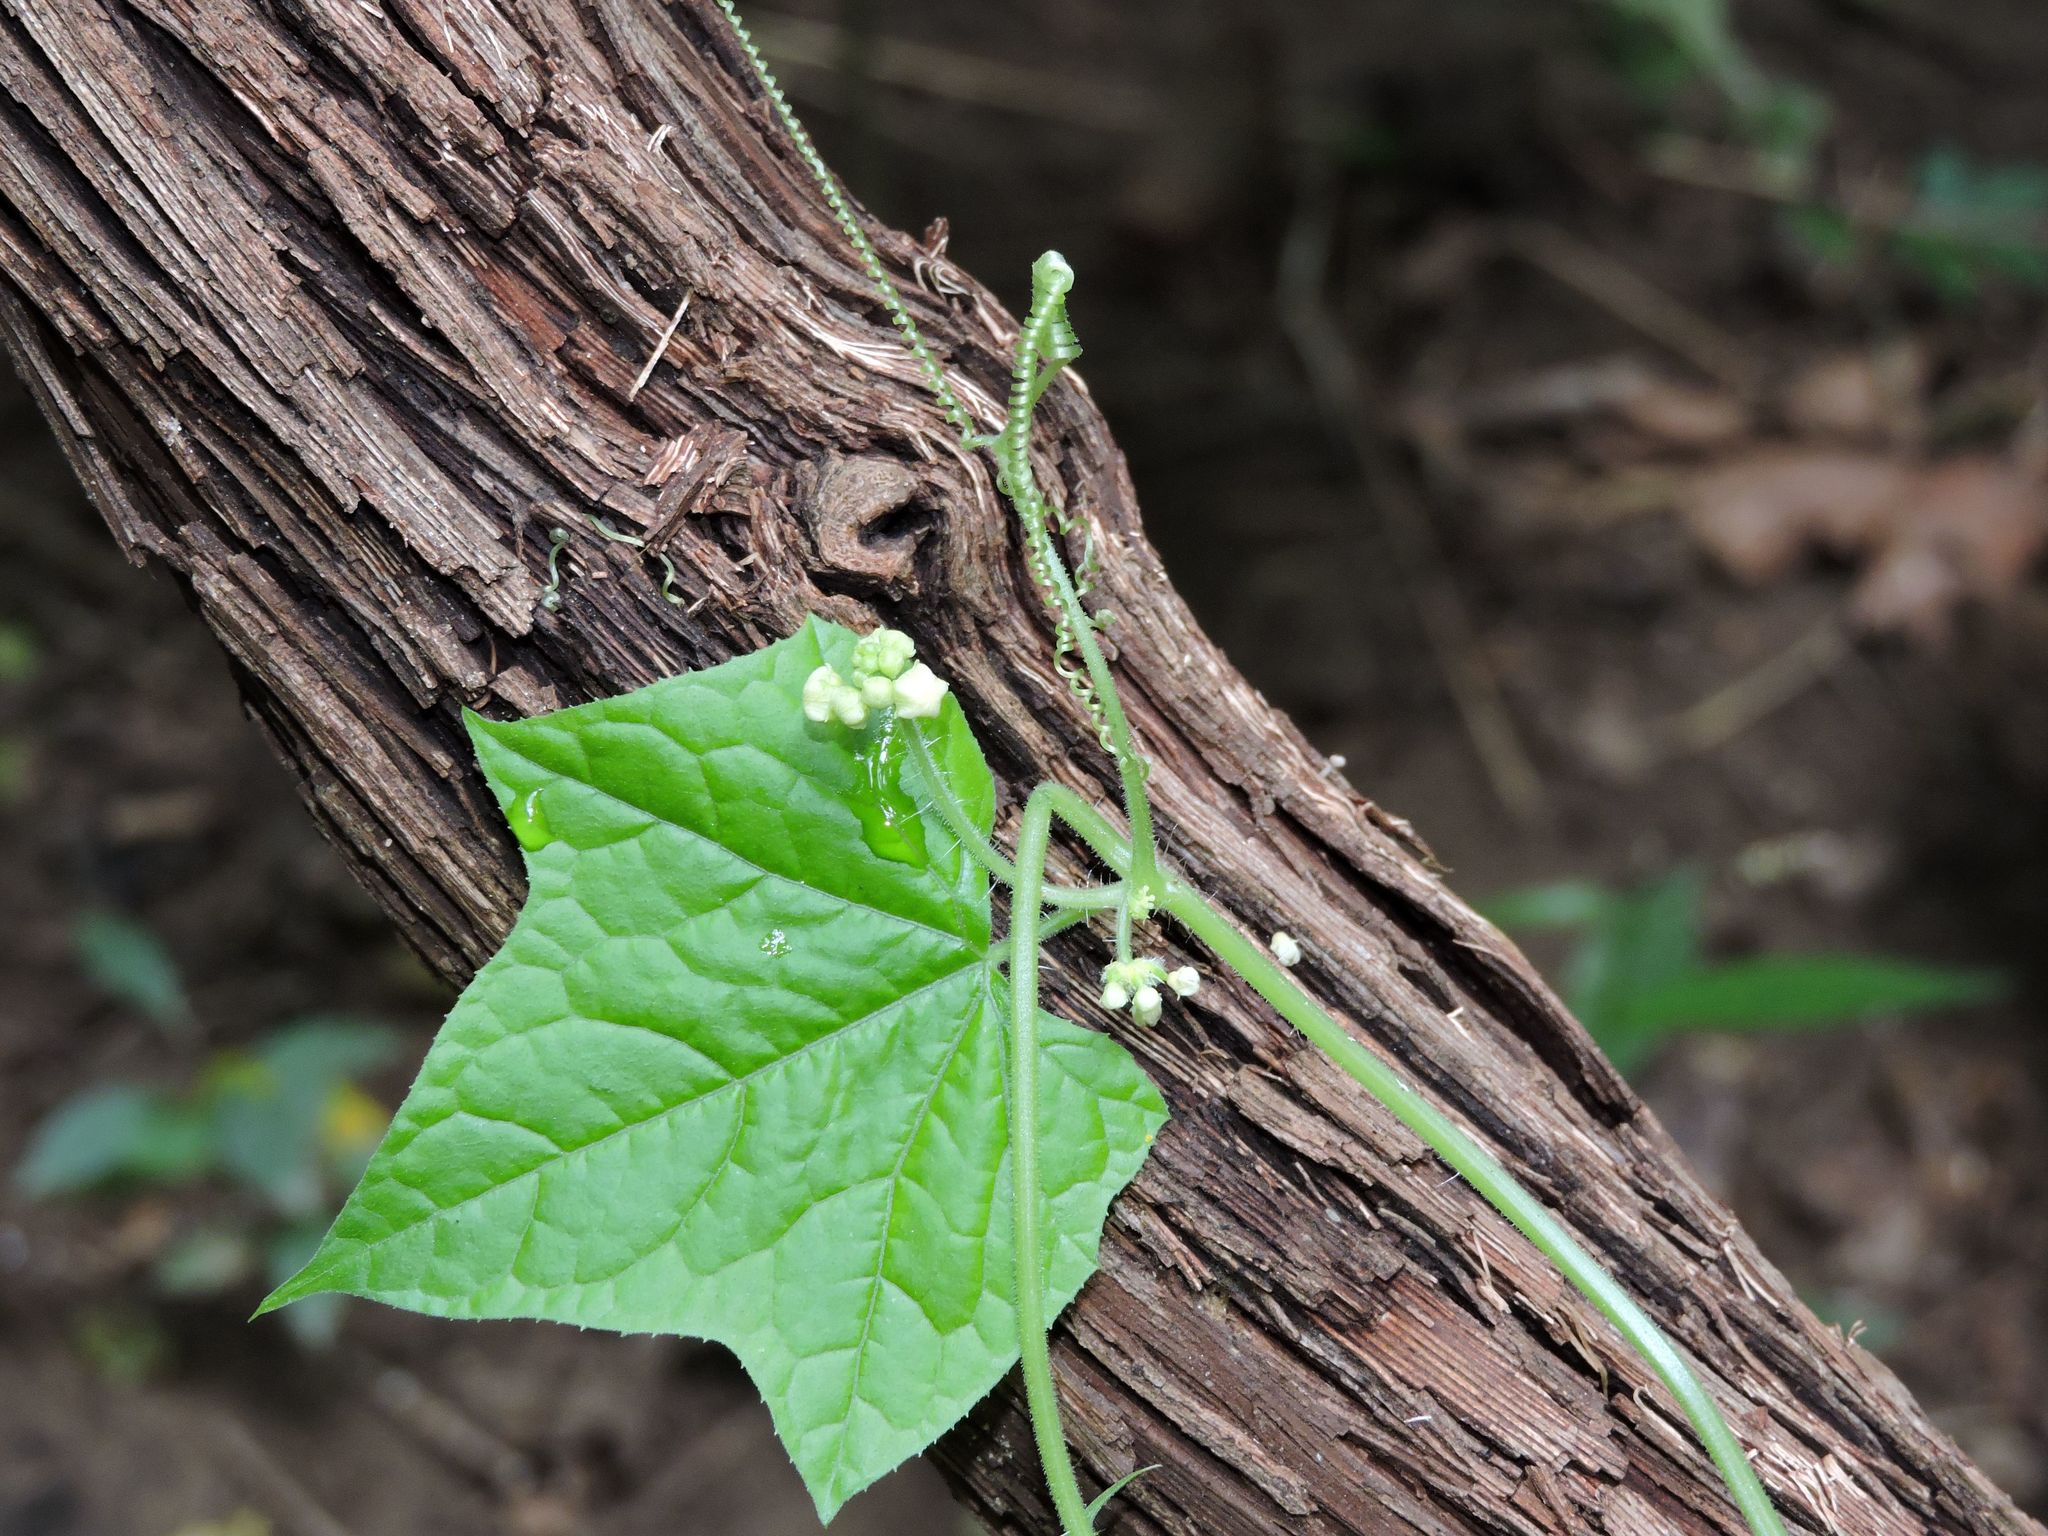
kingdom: Plantae
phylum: Tracheophyta
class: Magnoliopsida
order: Cucurbitales
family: Cucurbitaceae
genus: Sicyos
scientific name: Sicyos angulatus
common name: Angled burr cucumber
